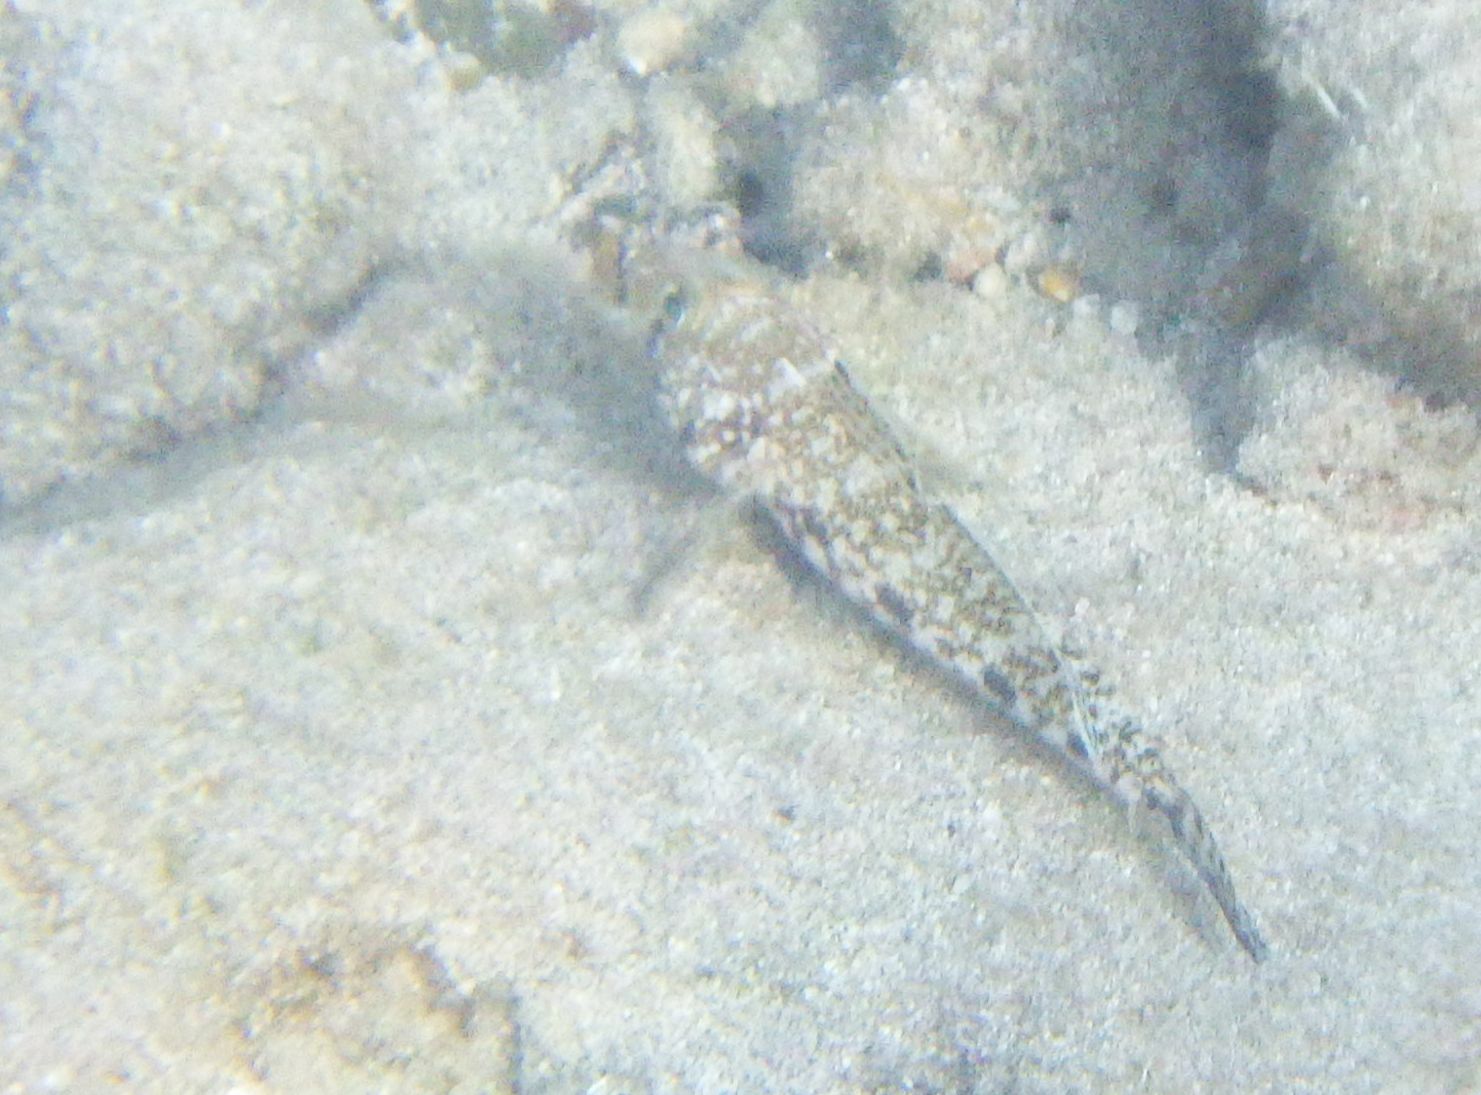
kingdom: Animalia
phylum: Chordata
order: Perciformes
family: Gobiidae
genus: Gobius
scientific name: Gobius geniporus
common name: Slender goby
